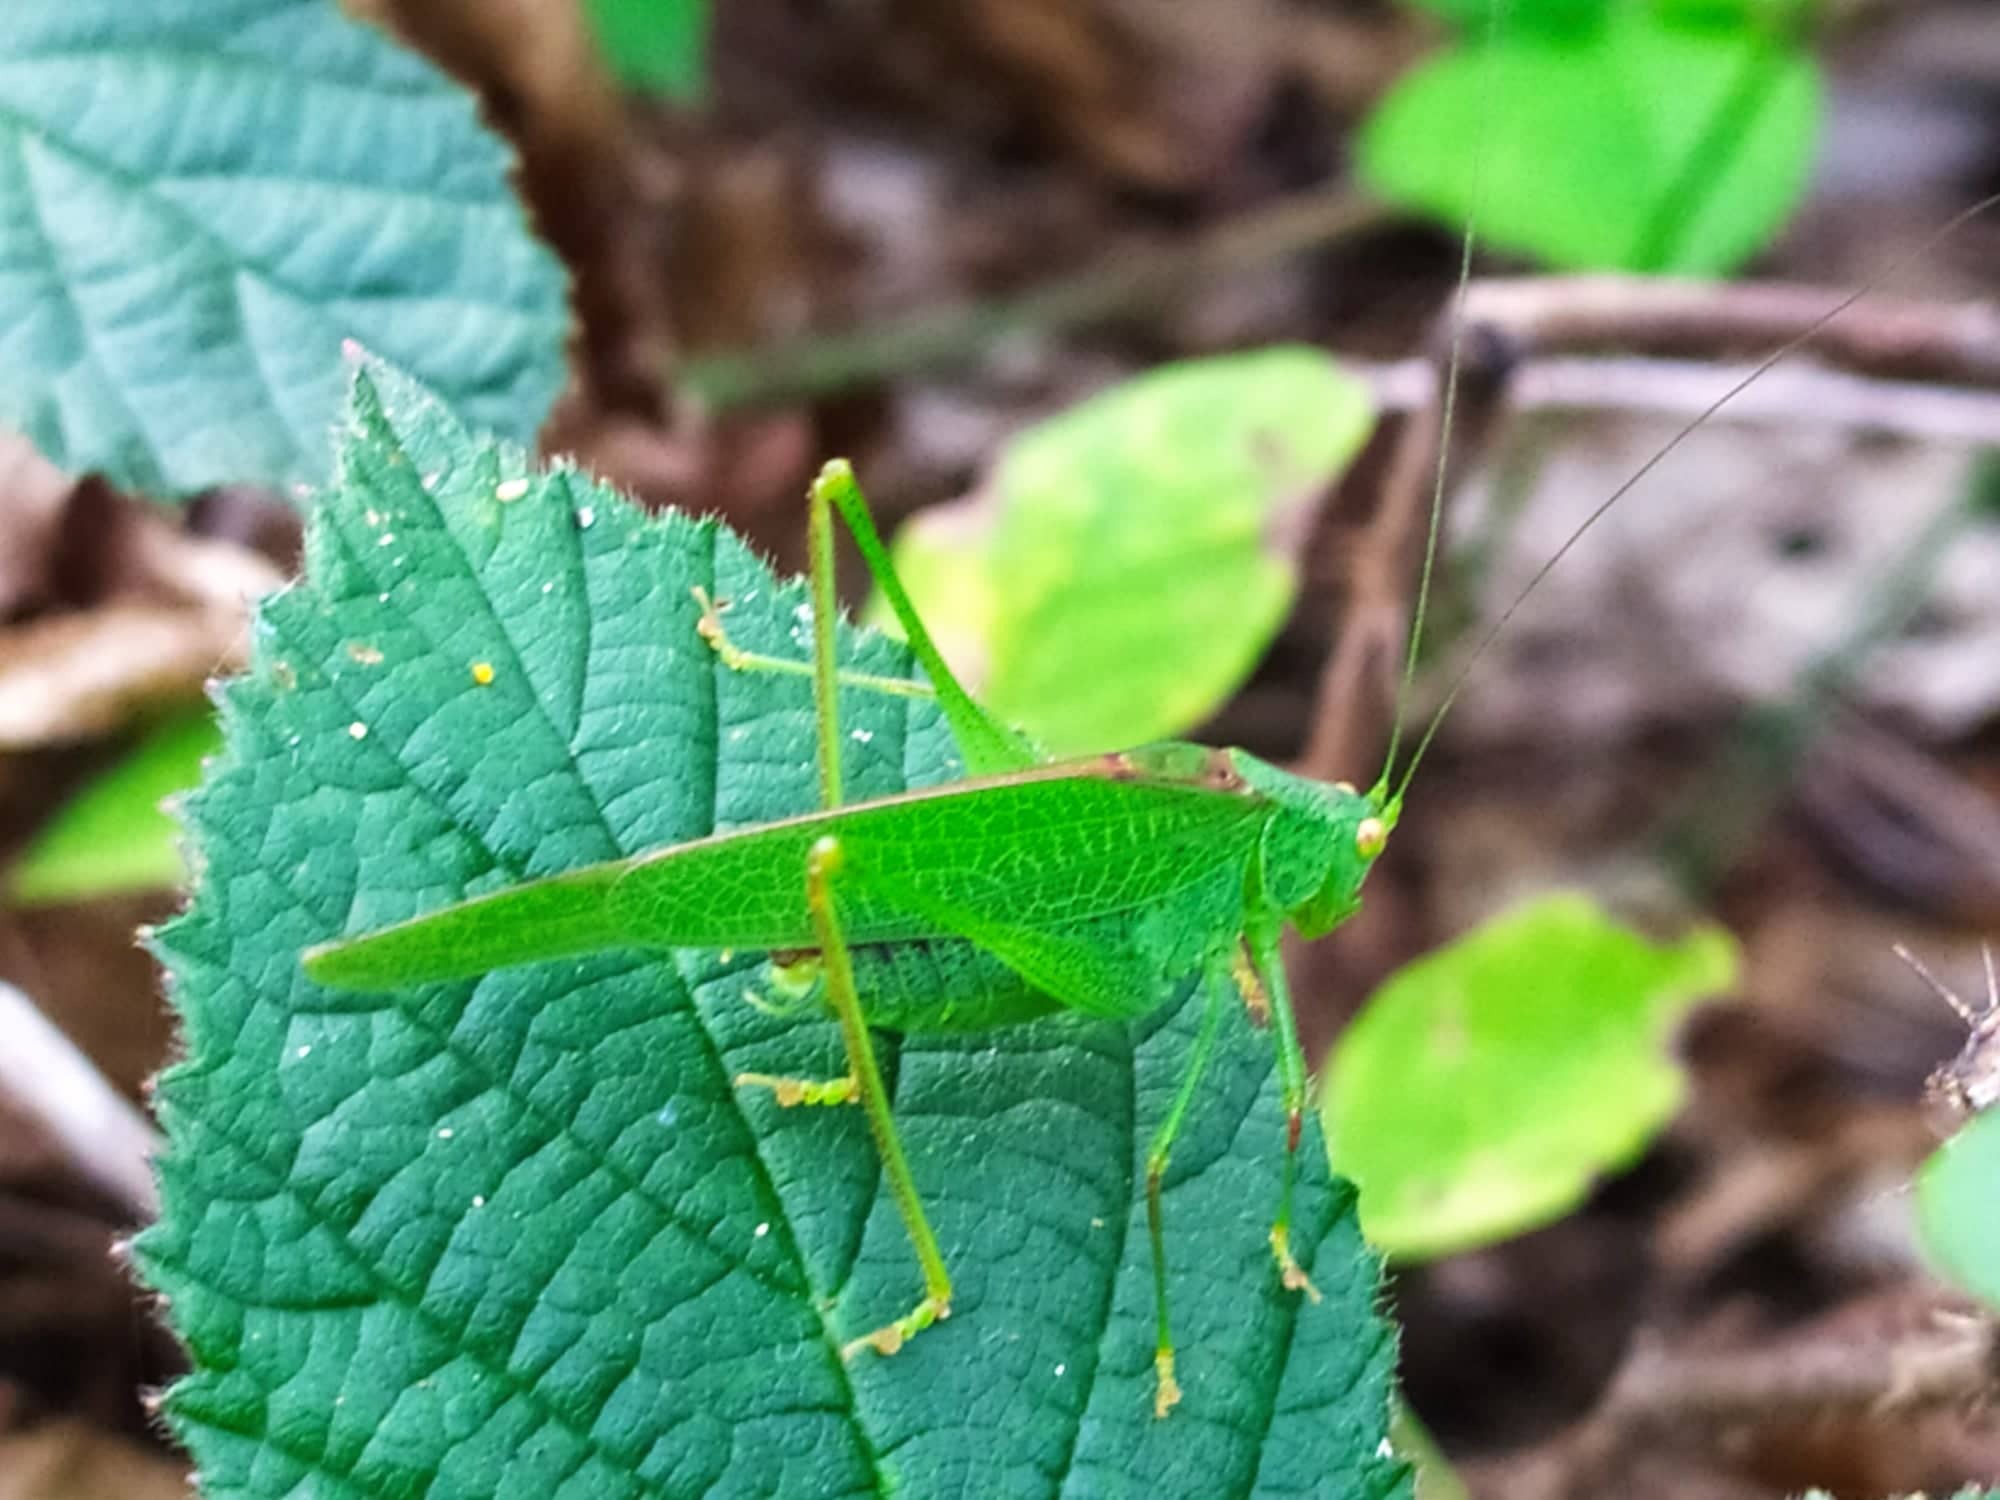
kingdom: Animalia
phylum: Arthropoda
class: Insecta
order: Orthoptera
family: Tettigoniidae
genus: Phaneroptera
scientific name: Phaneroptera nana
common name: Southern sickle bush-cricket
